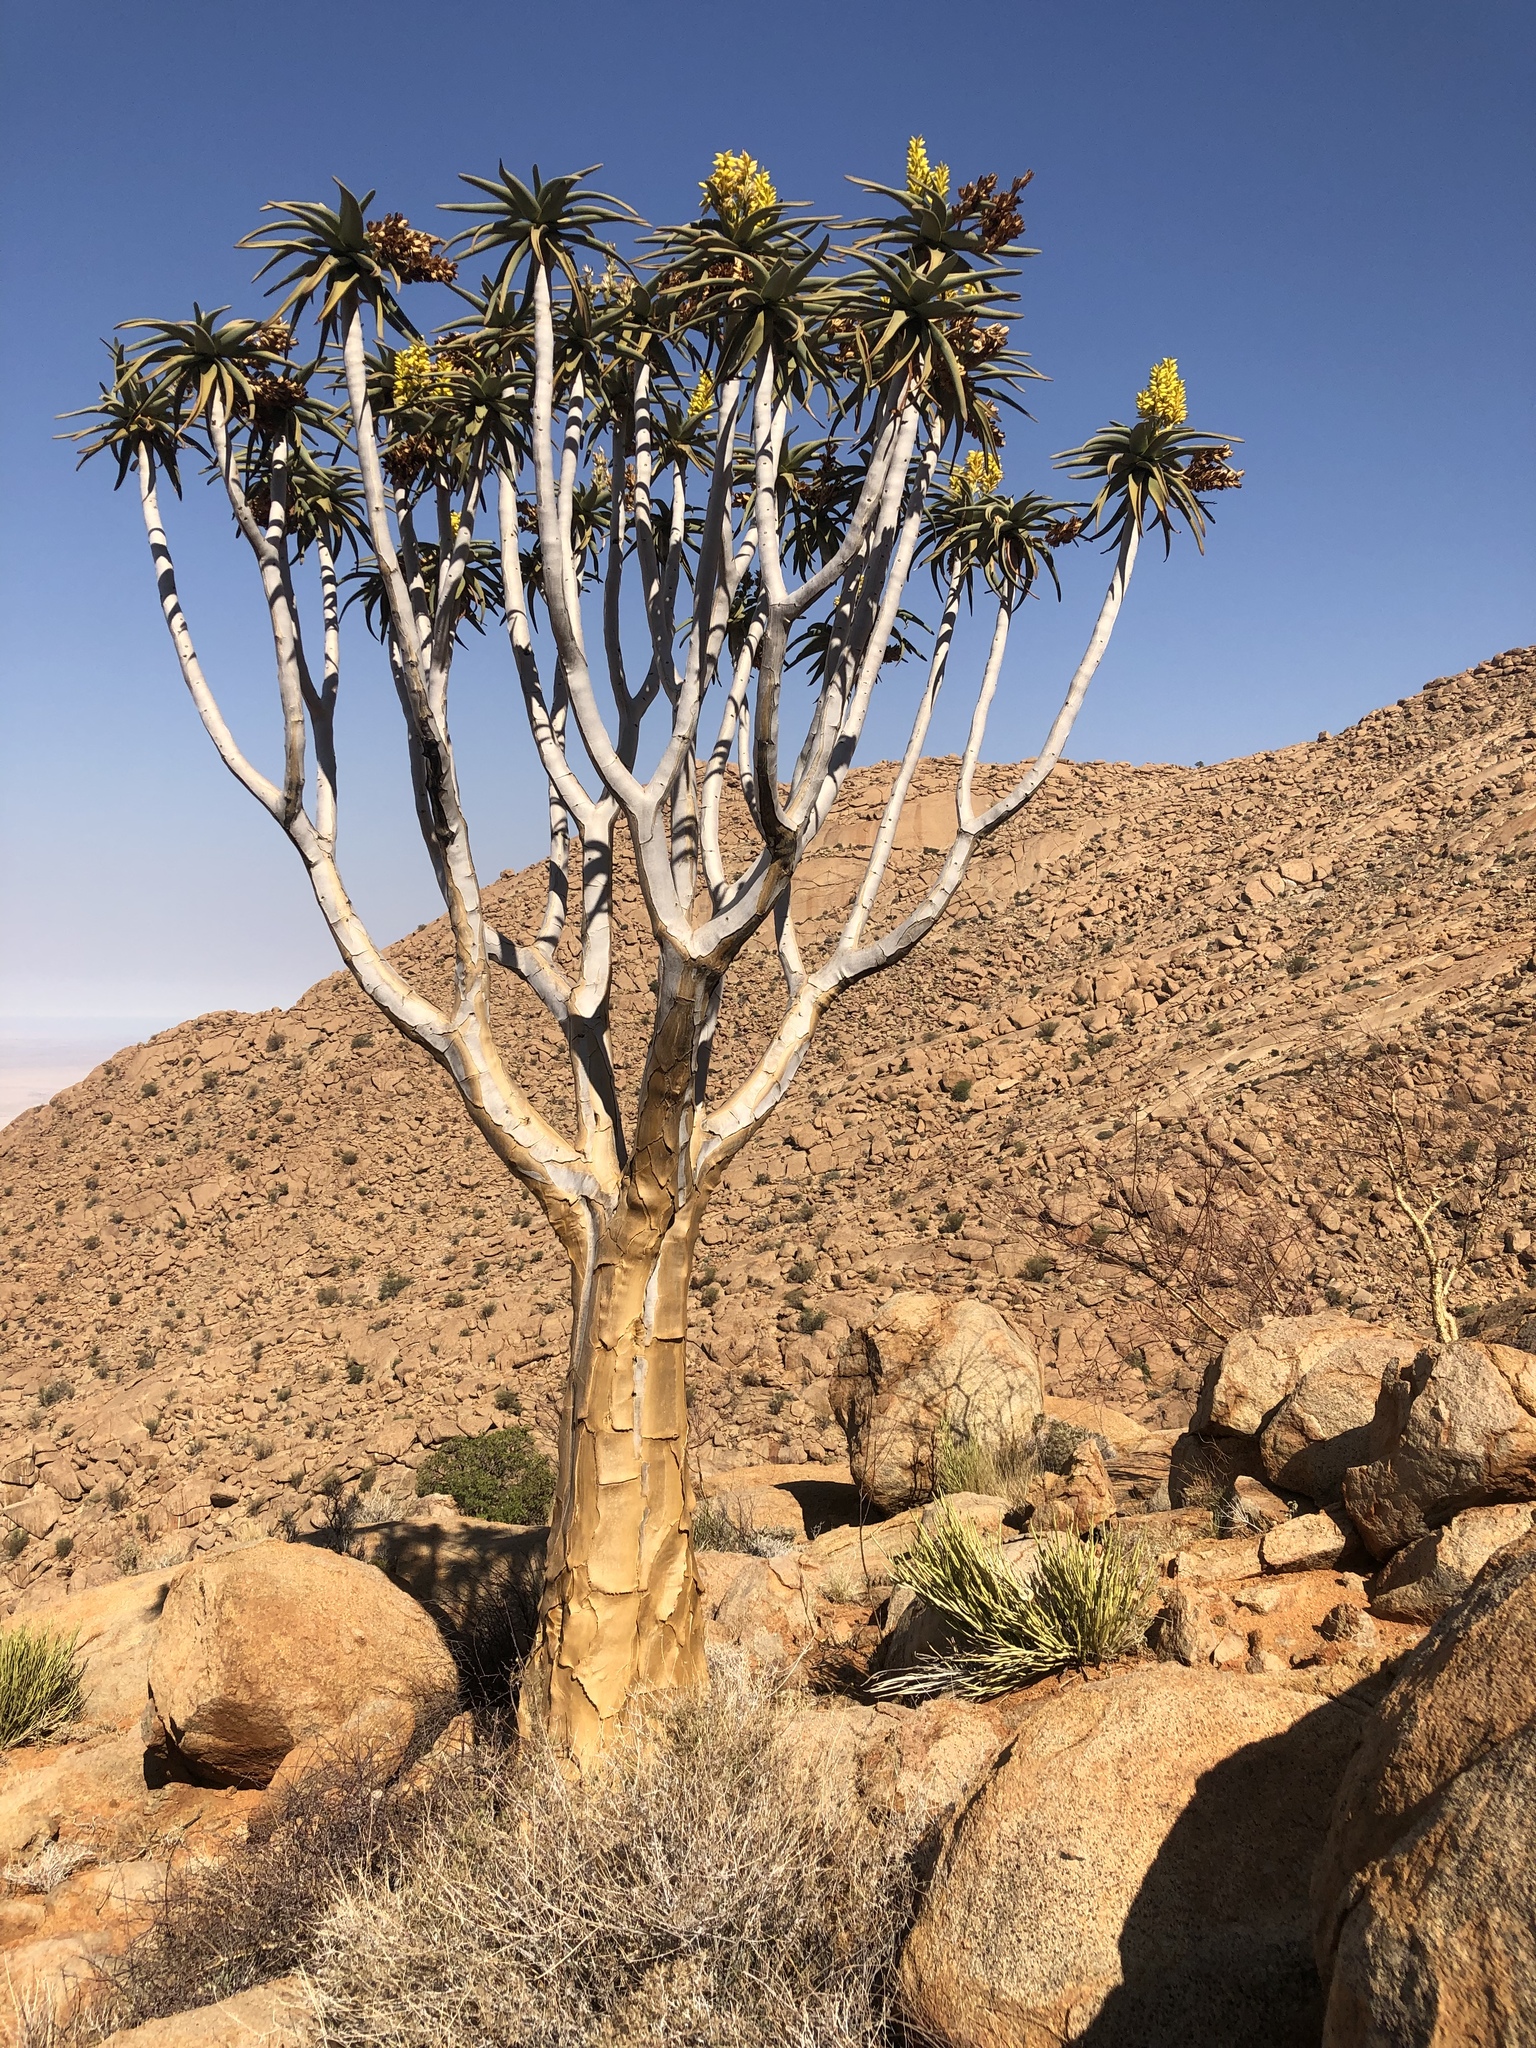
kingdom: Plantae
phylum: Tracheophyta
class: Liliopsida
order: Asparagales
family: Asphodelaceae
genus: Aloidendron
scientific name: Aloidendron dichotomum
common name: Quiver tree
